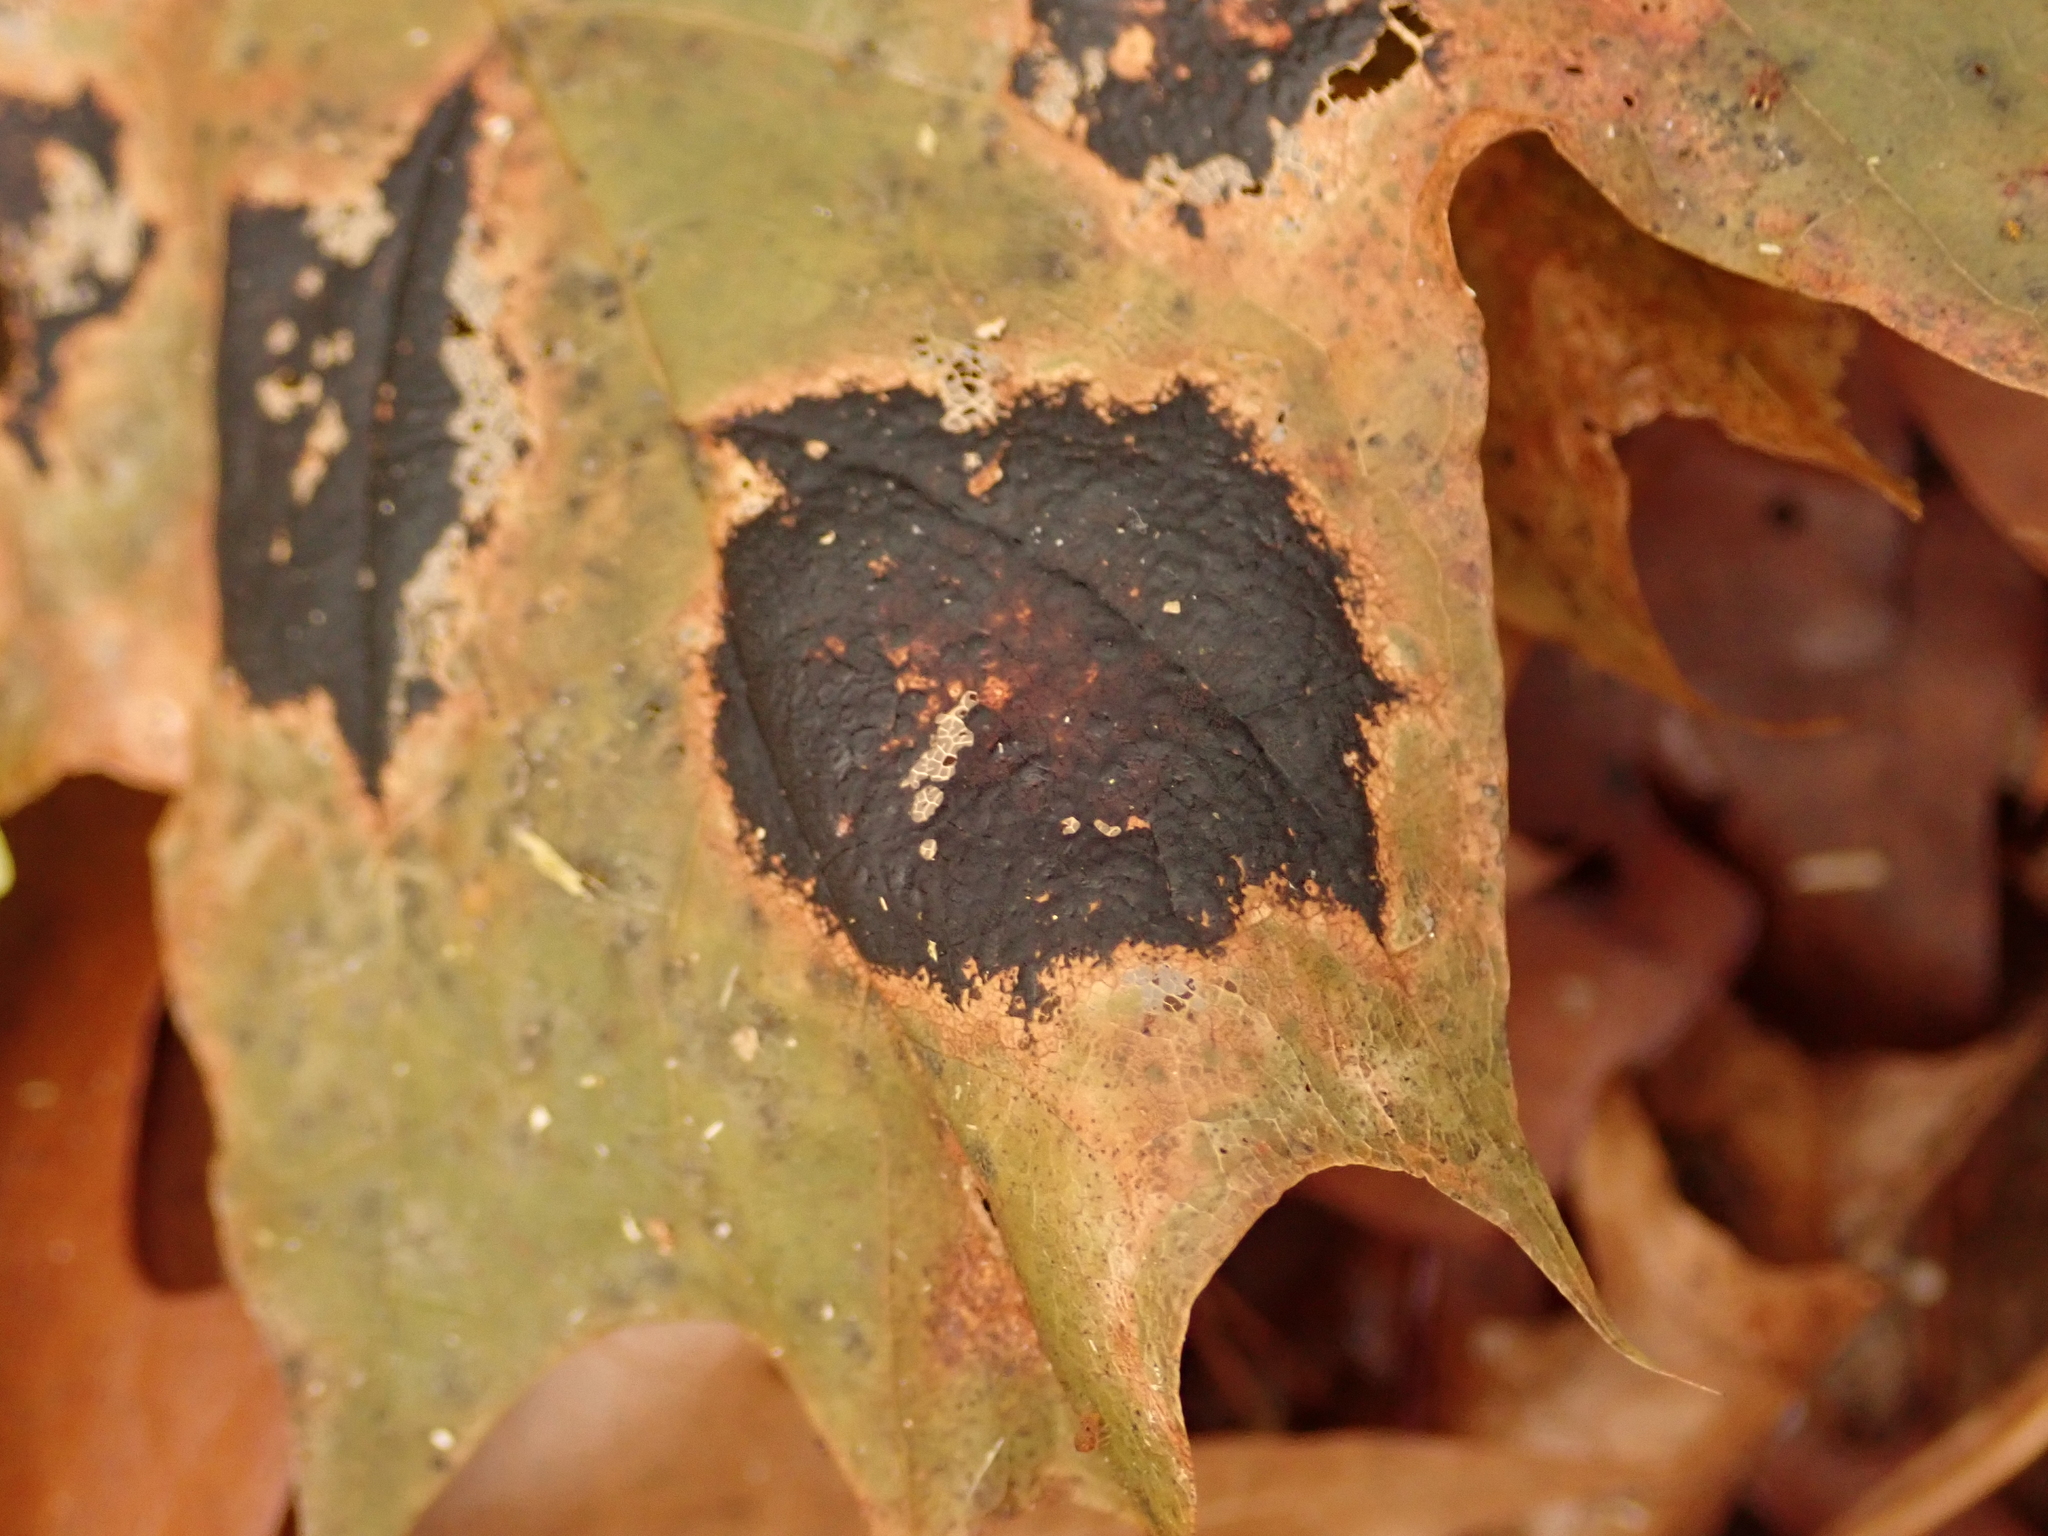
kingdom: Fungi
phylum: Ascomycota
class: Leotiomycetes
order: Rhytismatales
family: Rhytismataceae
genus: Rhytisma
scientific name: Rhytisma acerinum
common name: European tar spot
